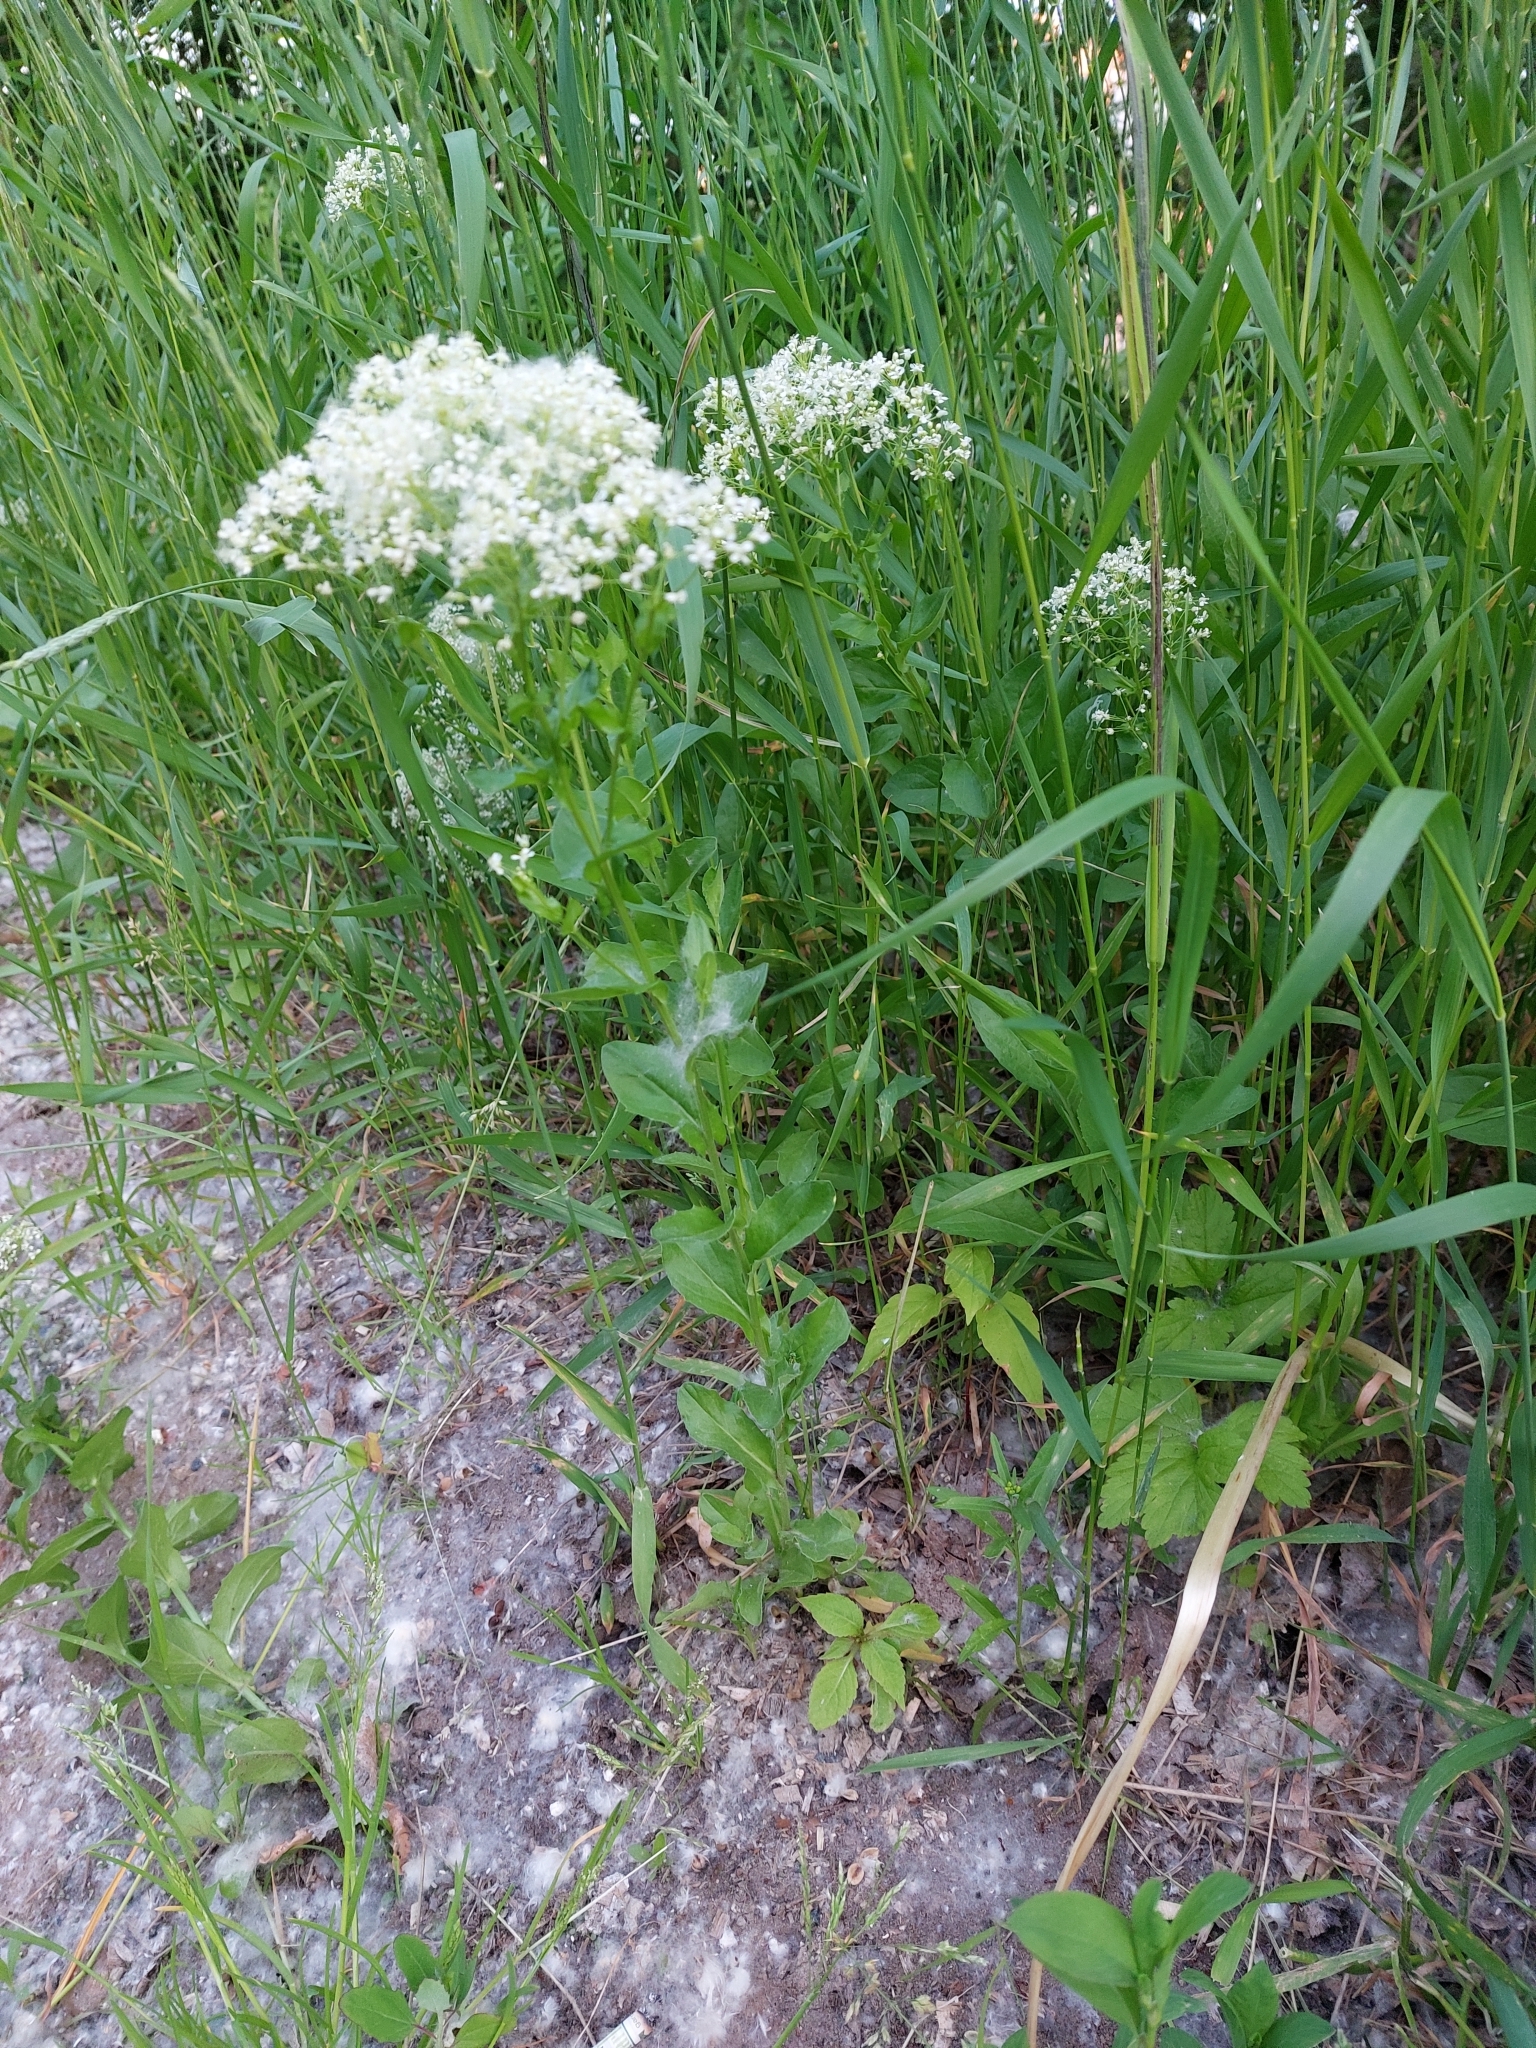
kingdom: Plantae
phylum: Tracheophyta
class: Magnoliopsida
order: Brassicales
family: Brassicaceae
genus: Lepidium
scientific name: Lepidium draba
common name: Hoary cress
